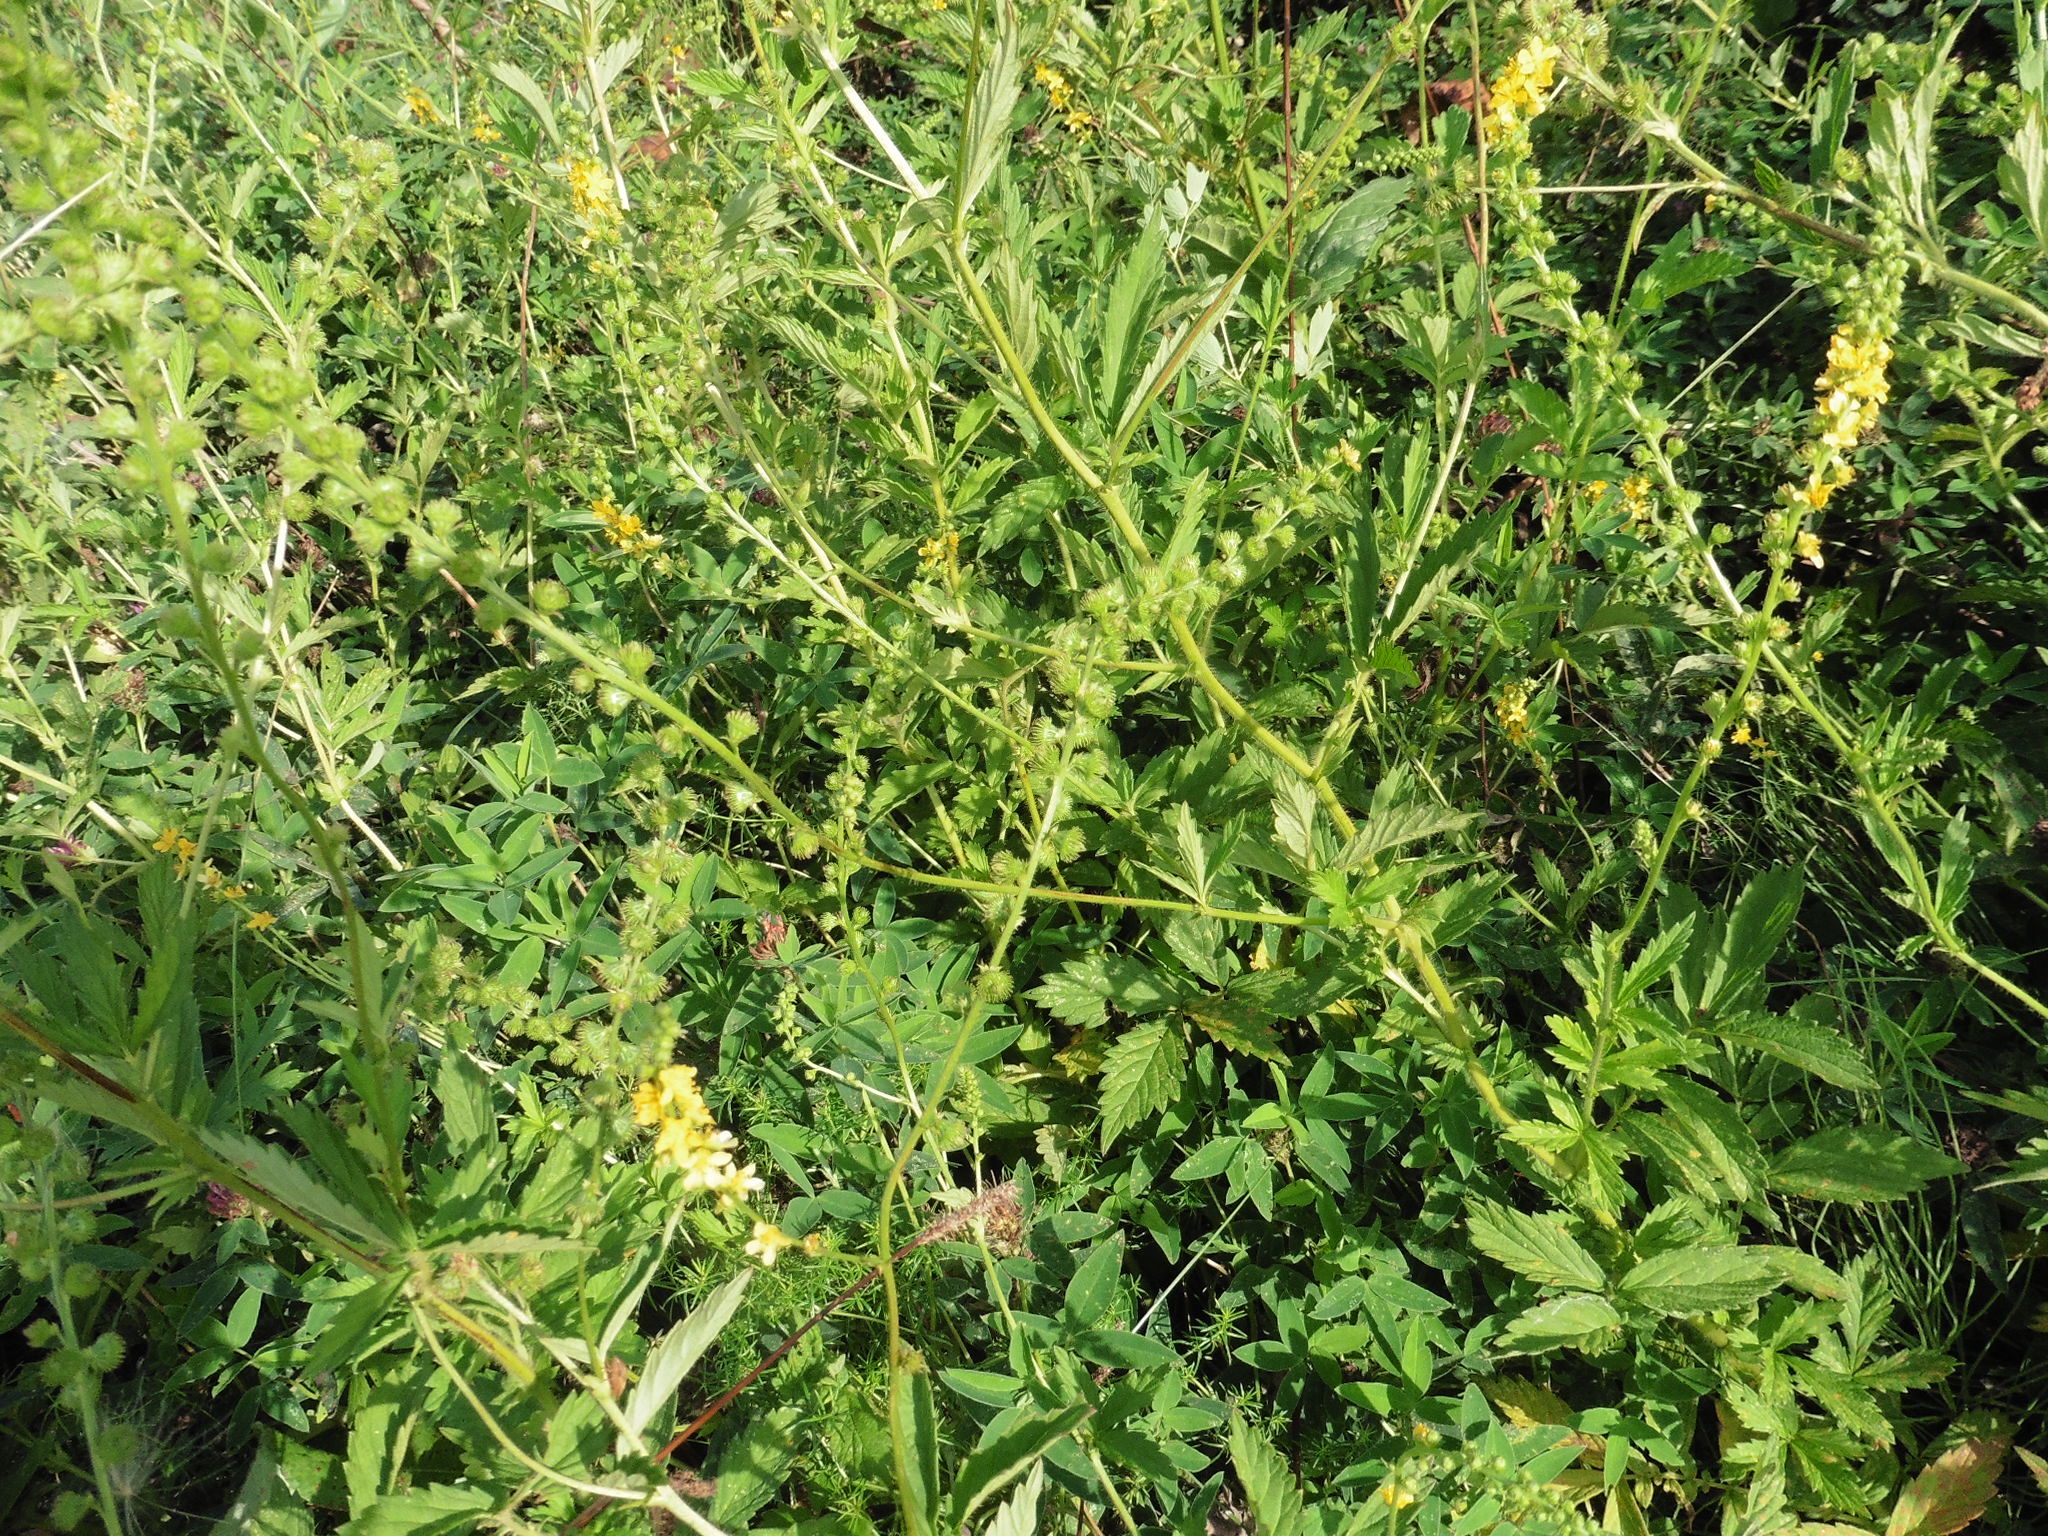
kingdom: Plantae
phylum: Tracheophyta
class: Magnoliopsida
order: Rosales
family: Rosaceae
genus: Agrimonia
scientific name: Agrimonia pilosa
